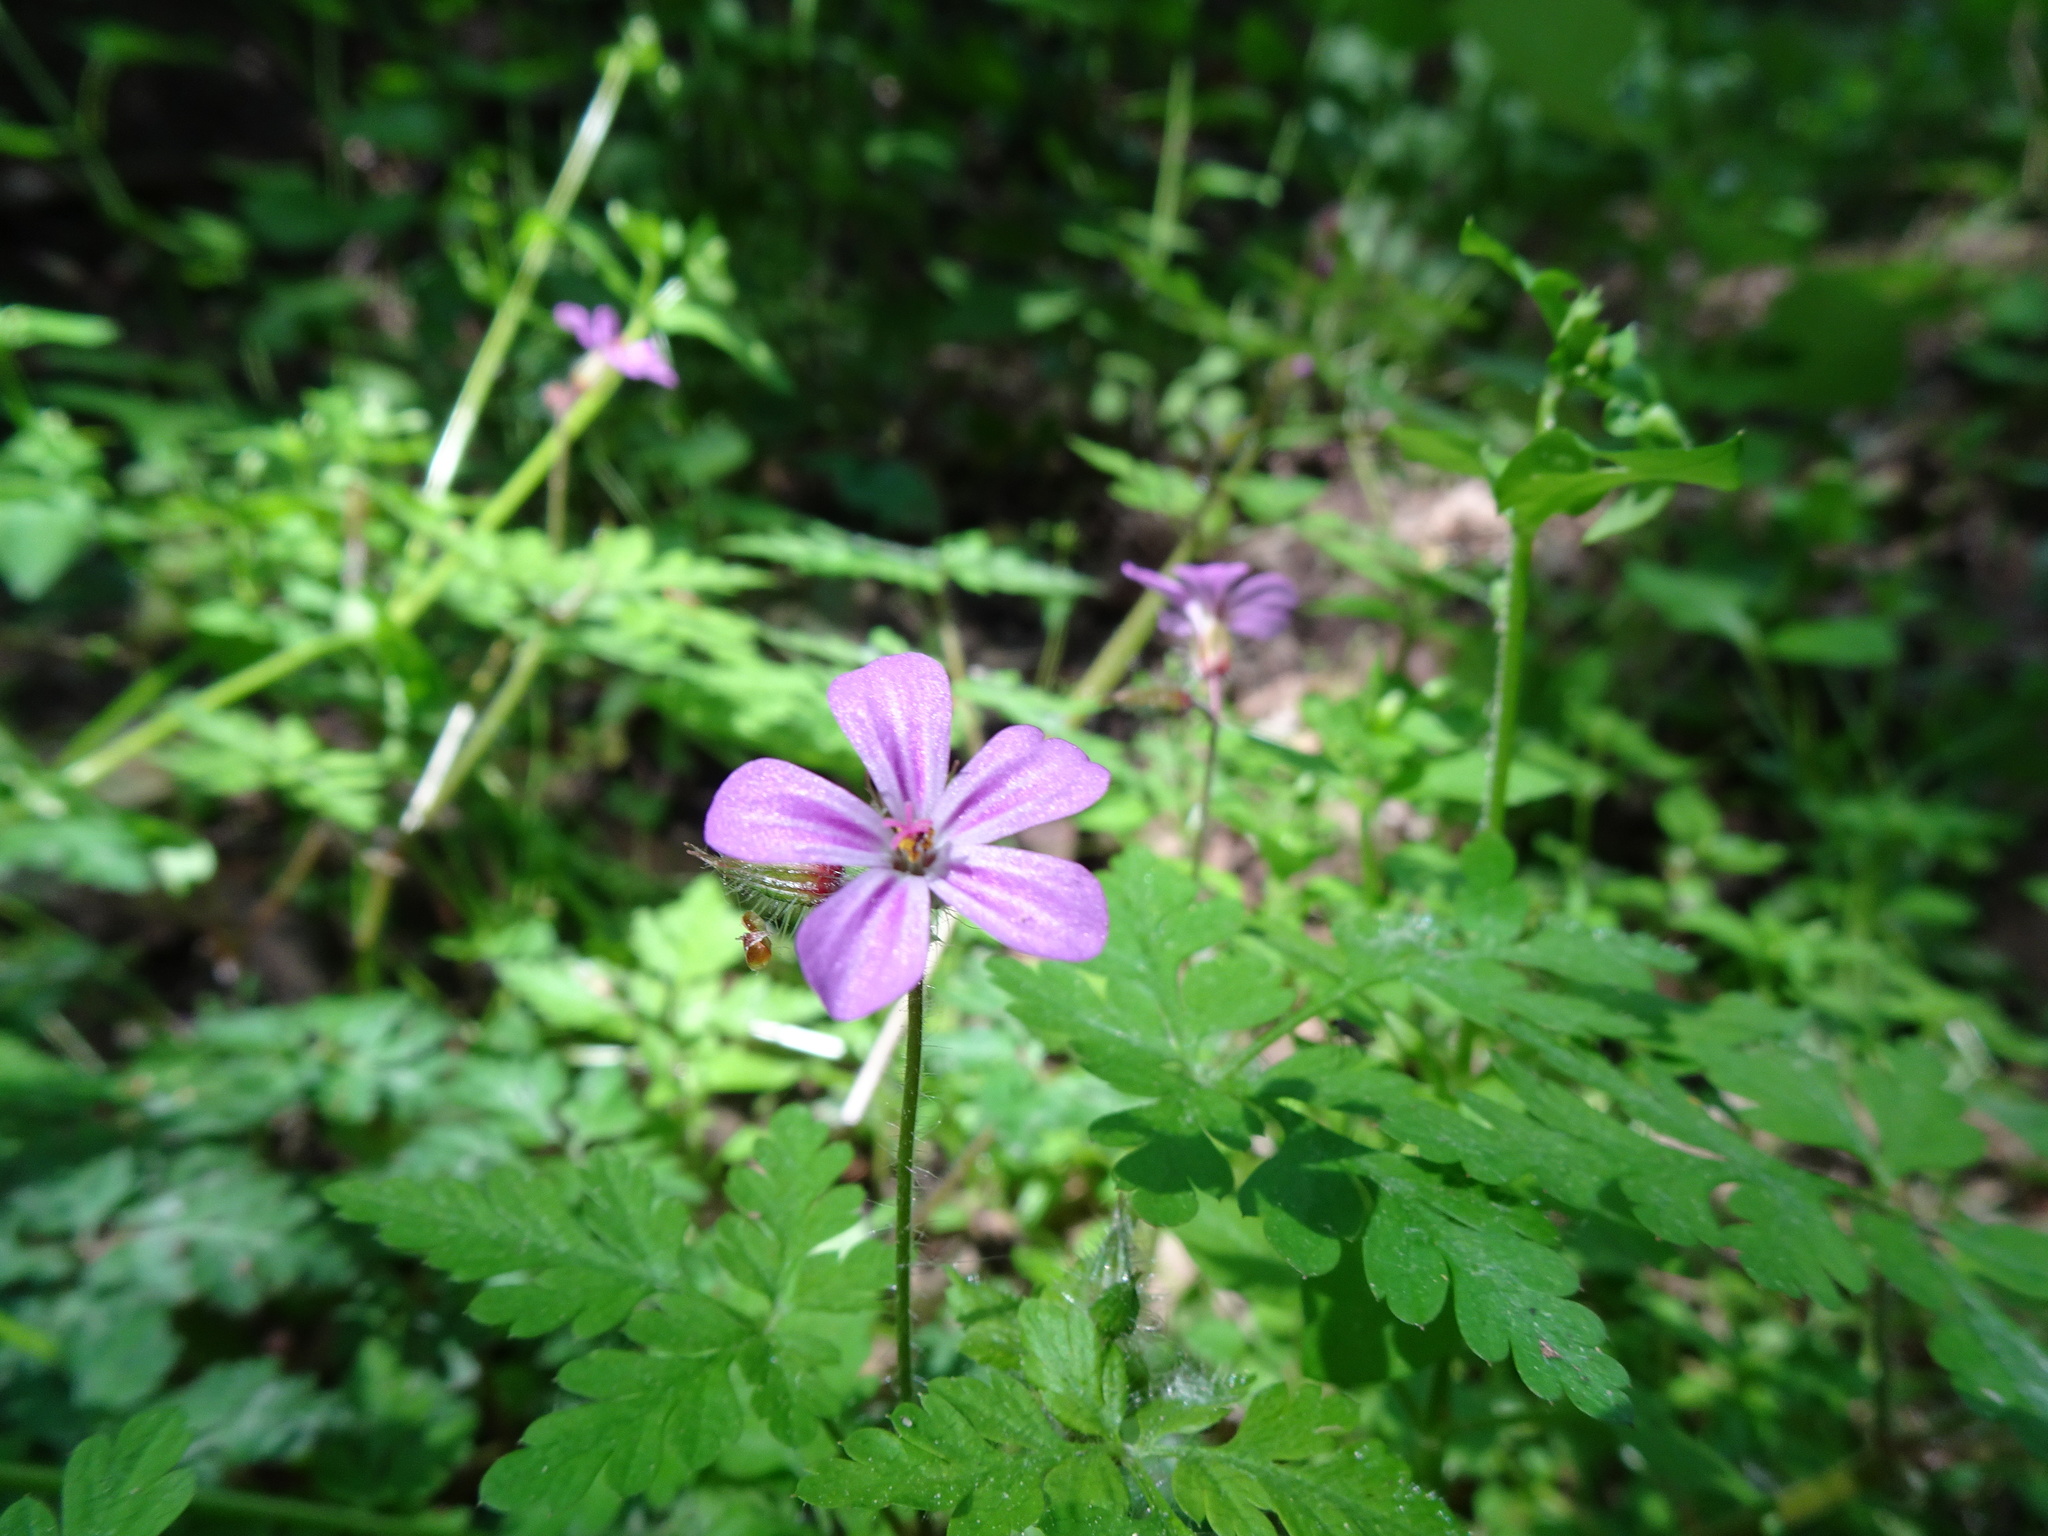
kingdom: Plantae
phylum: Tracheophyta
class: Magnoliopsida
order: Geraniales
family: Geraniaceae
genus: Geranium
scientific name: Geranium robertianum
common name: Herb-robert
